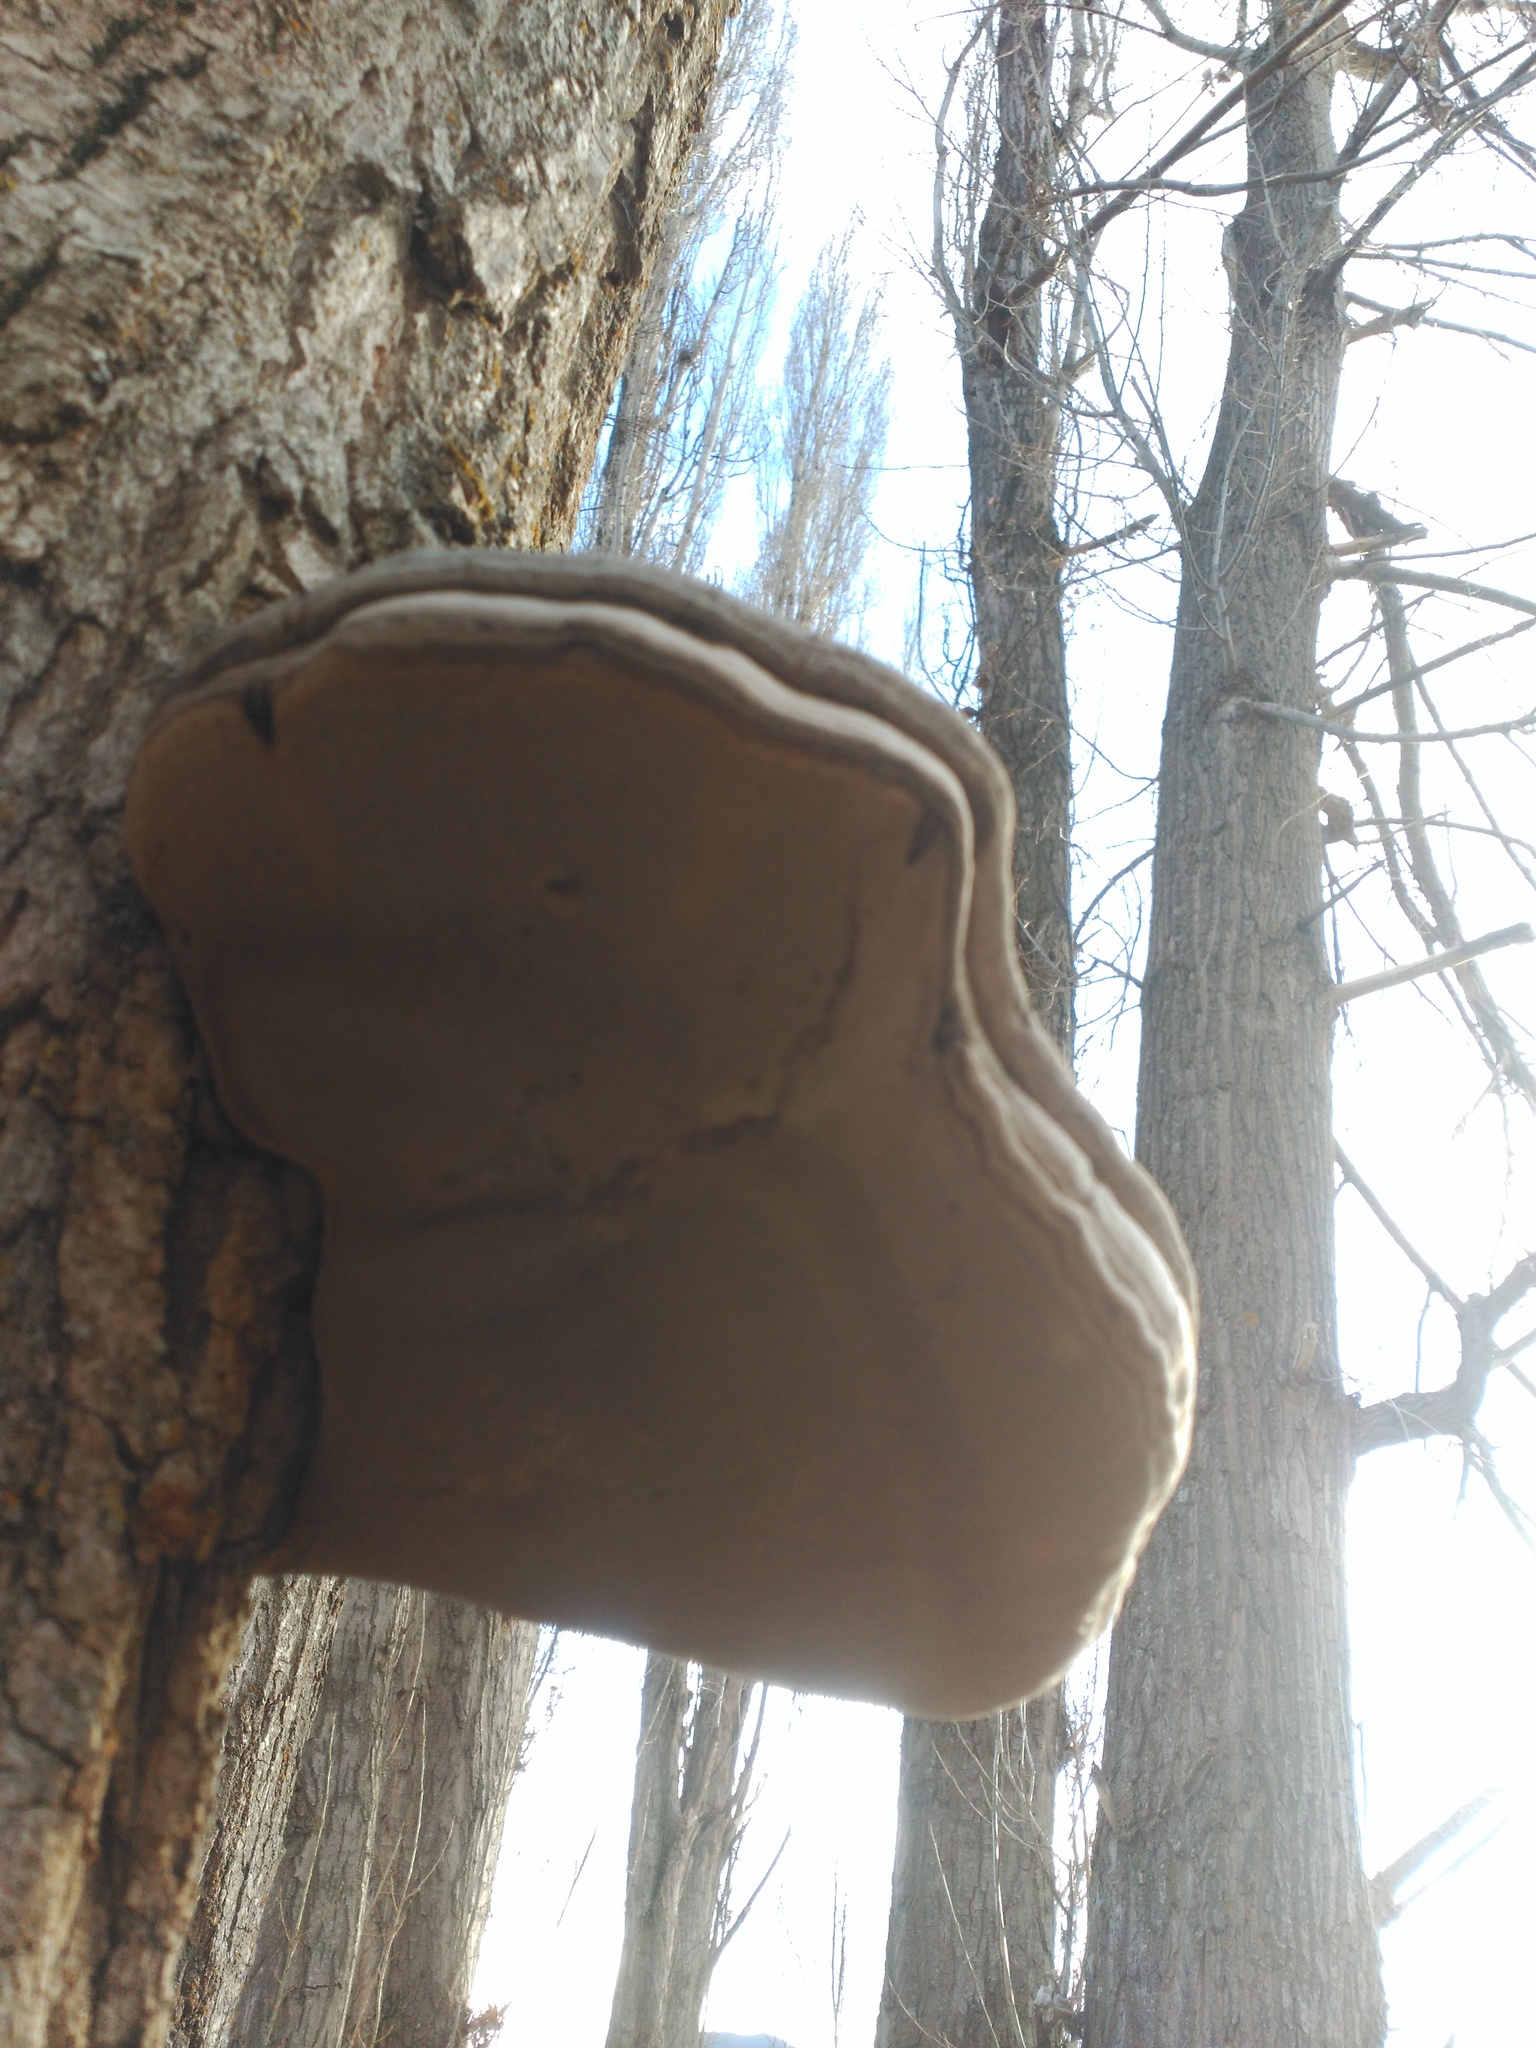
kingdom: Fungi
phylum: Basidiomycota
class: Agaricomycetes
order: Polyporales
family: Polyporaceae
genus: Fomes
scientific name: Fomes fomentarius
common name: Hoof fungus
